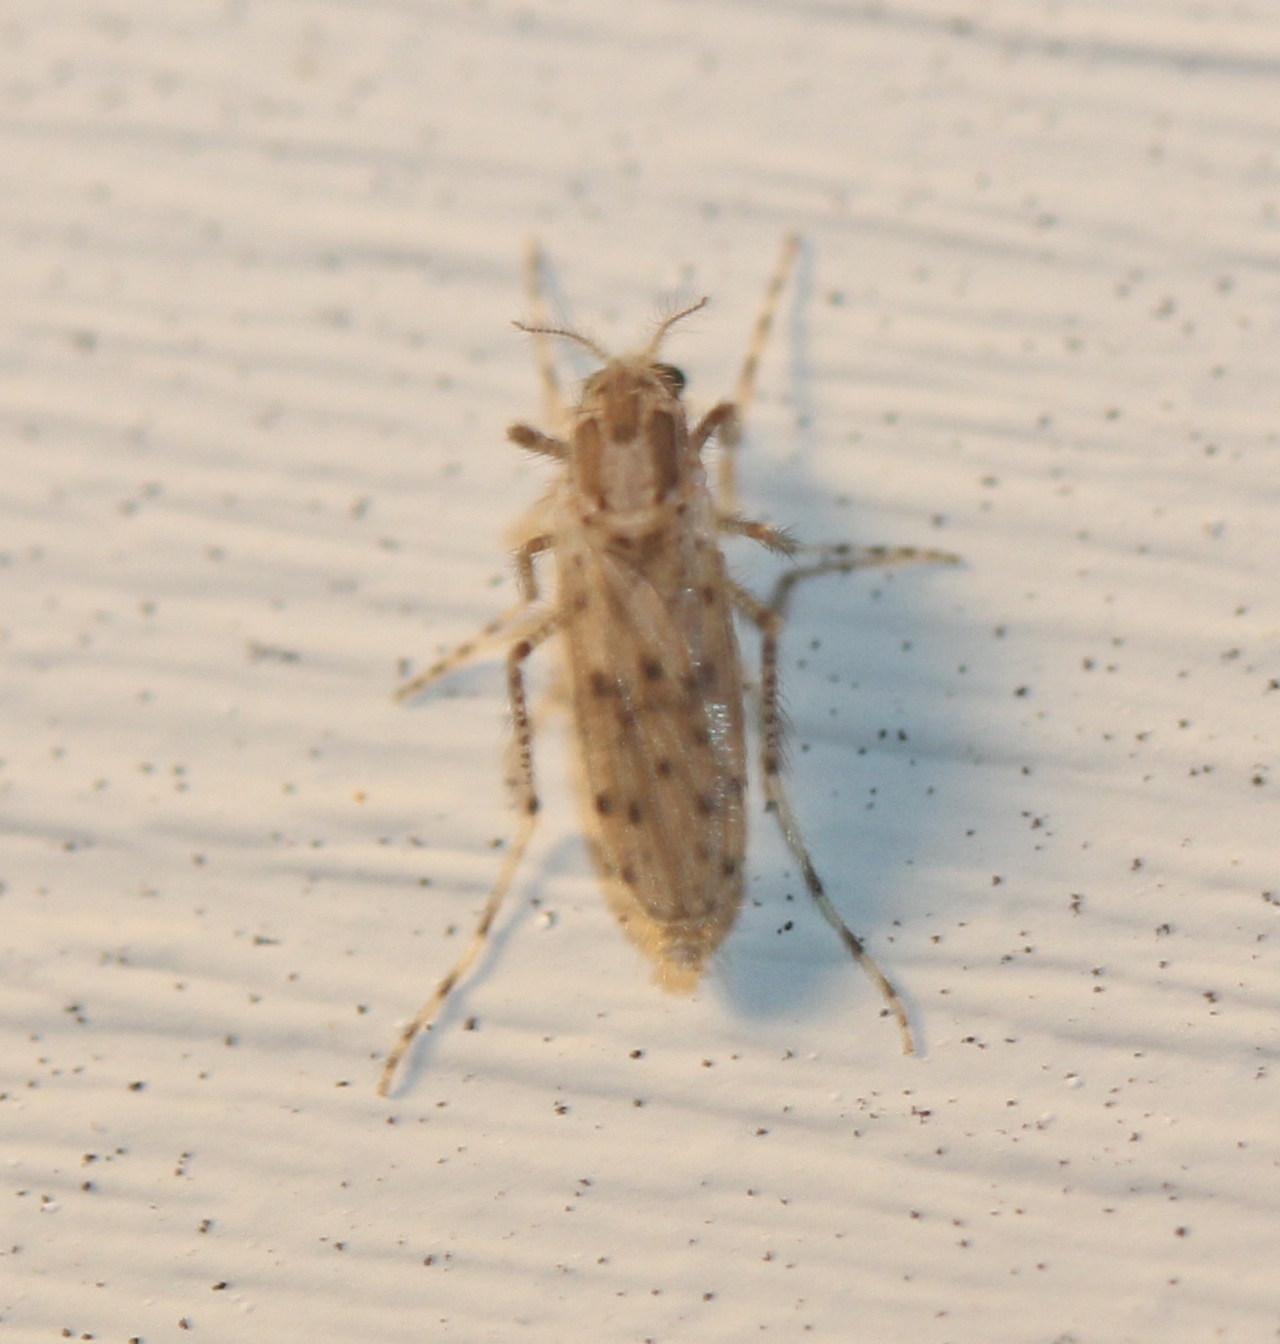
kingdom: Animalia
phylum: Arthropoda
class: Insecta
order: Diptera
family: Chaoboridae
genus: Chaoborus
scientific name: Chaoborus punctipennis
